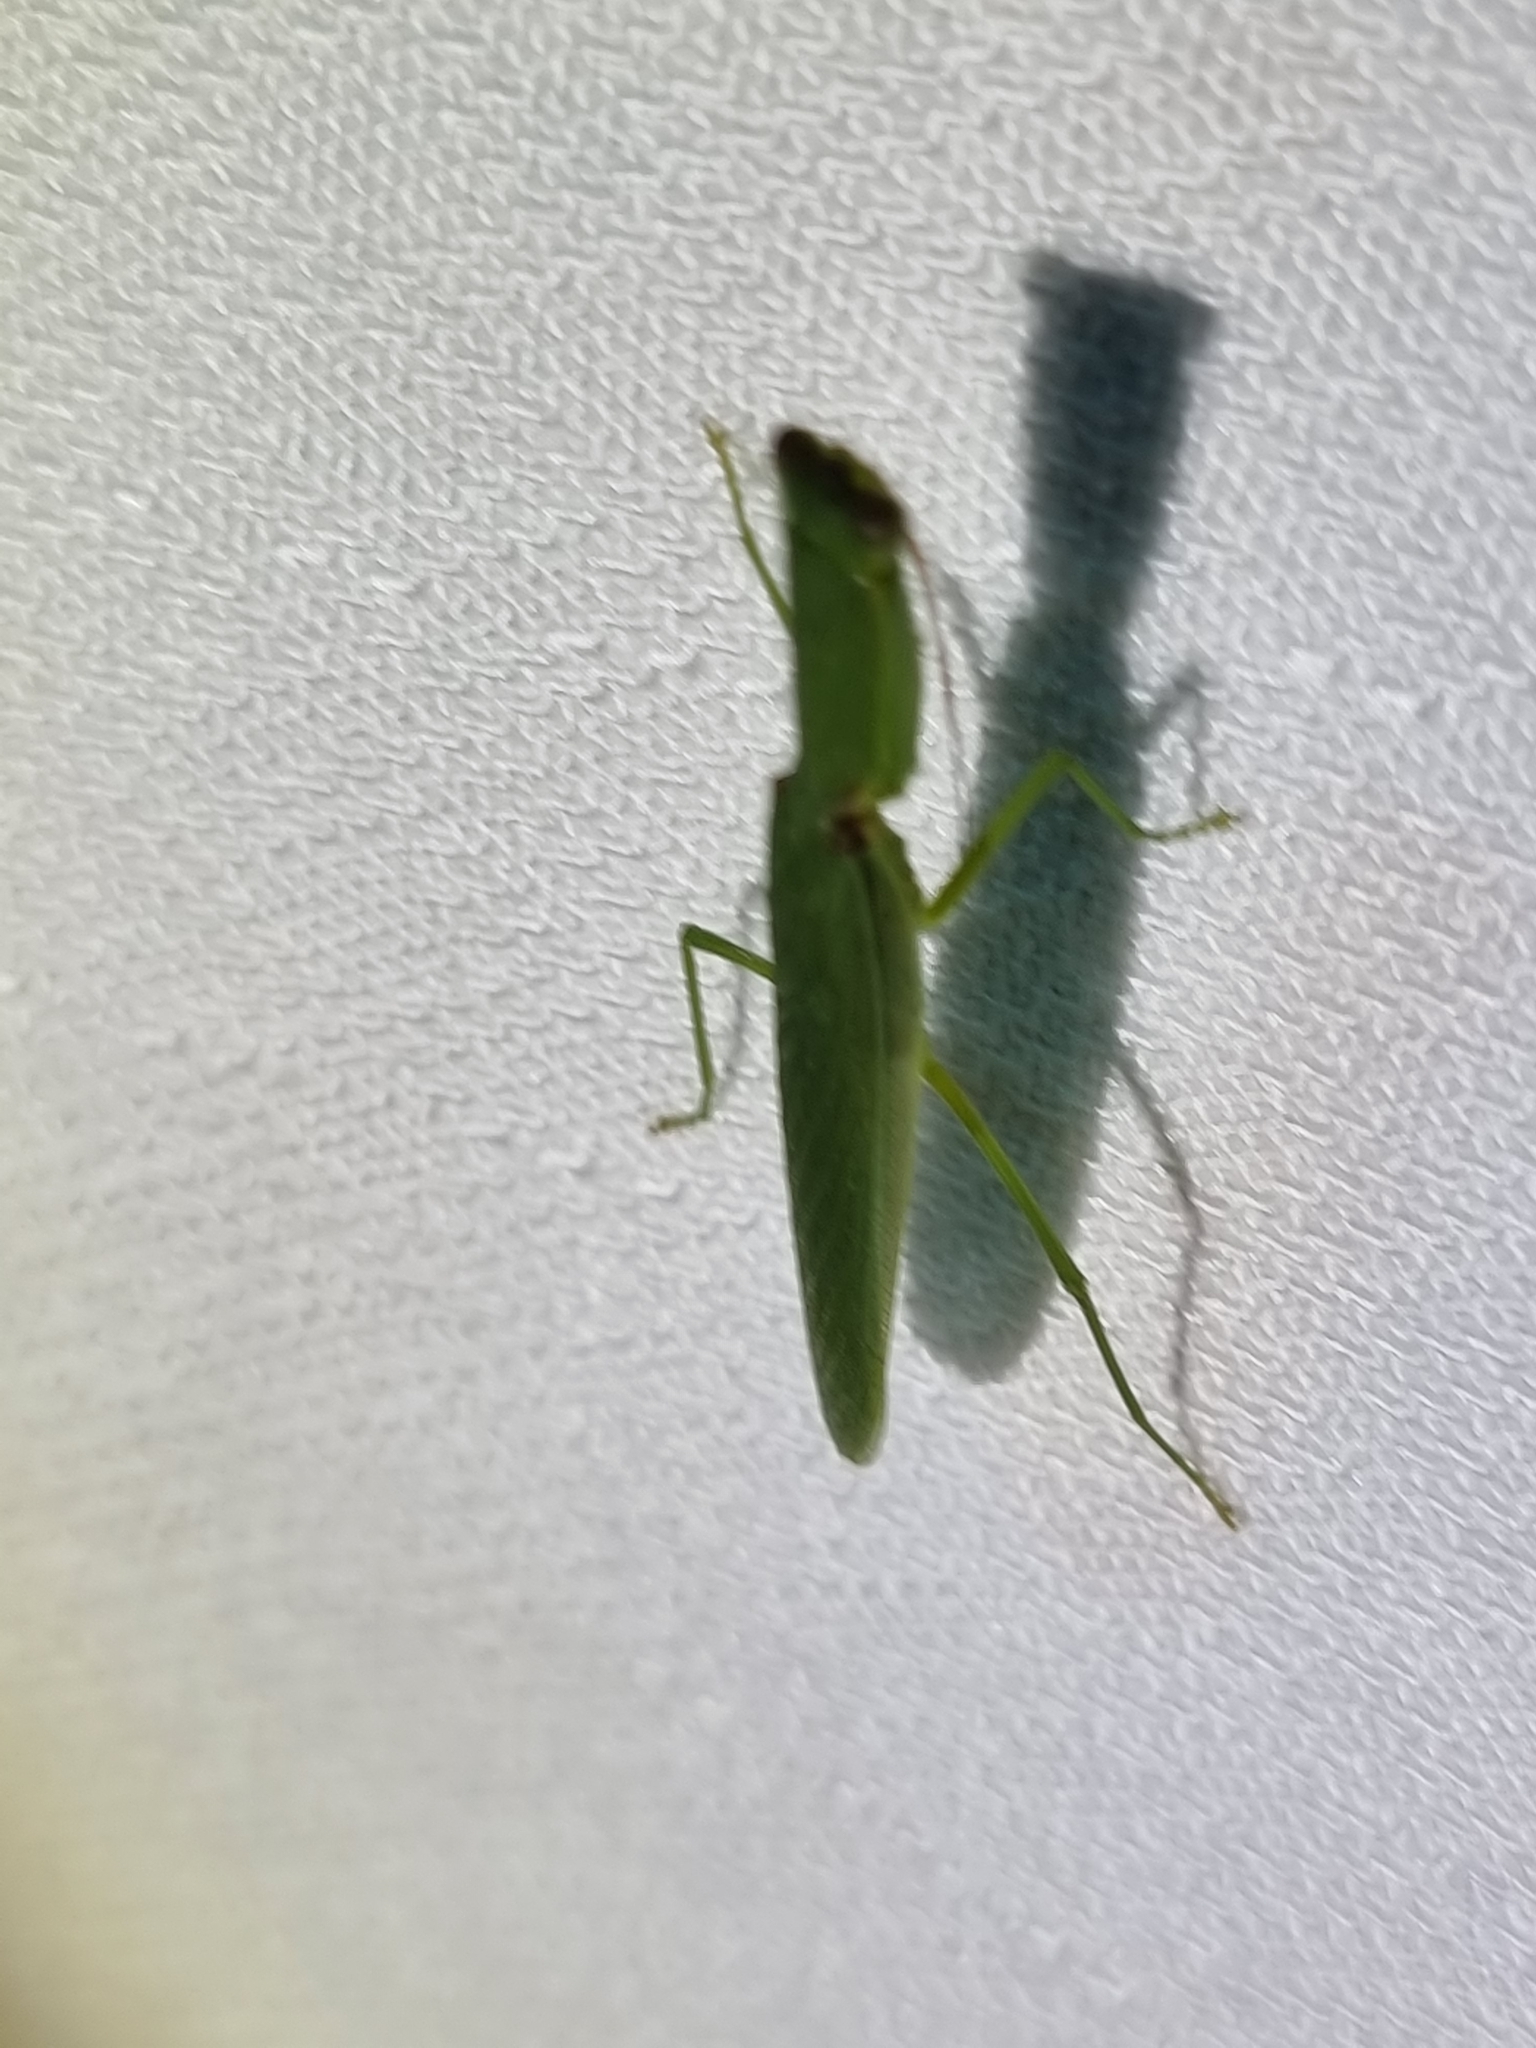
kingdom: Animalia
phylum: Arthropoda
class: Insecta
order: Mantodea
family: Mantidae
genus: Orthodera
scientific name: Orthodera ministralis
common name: Mantis
